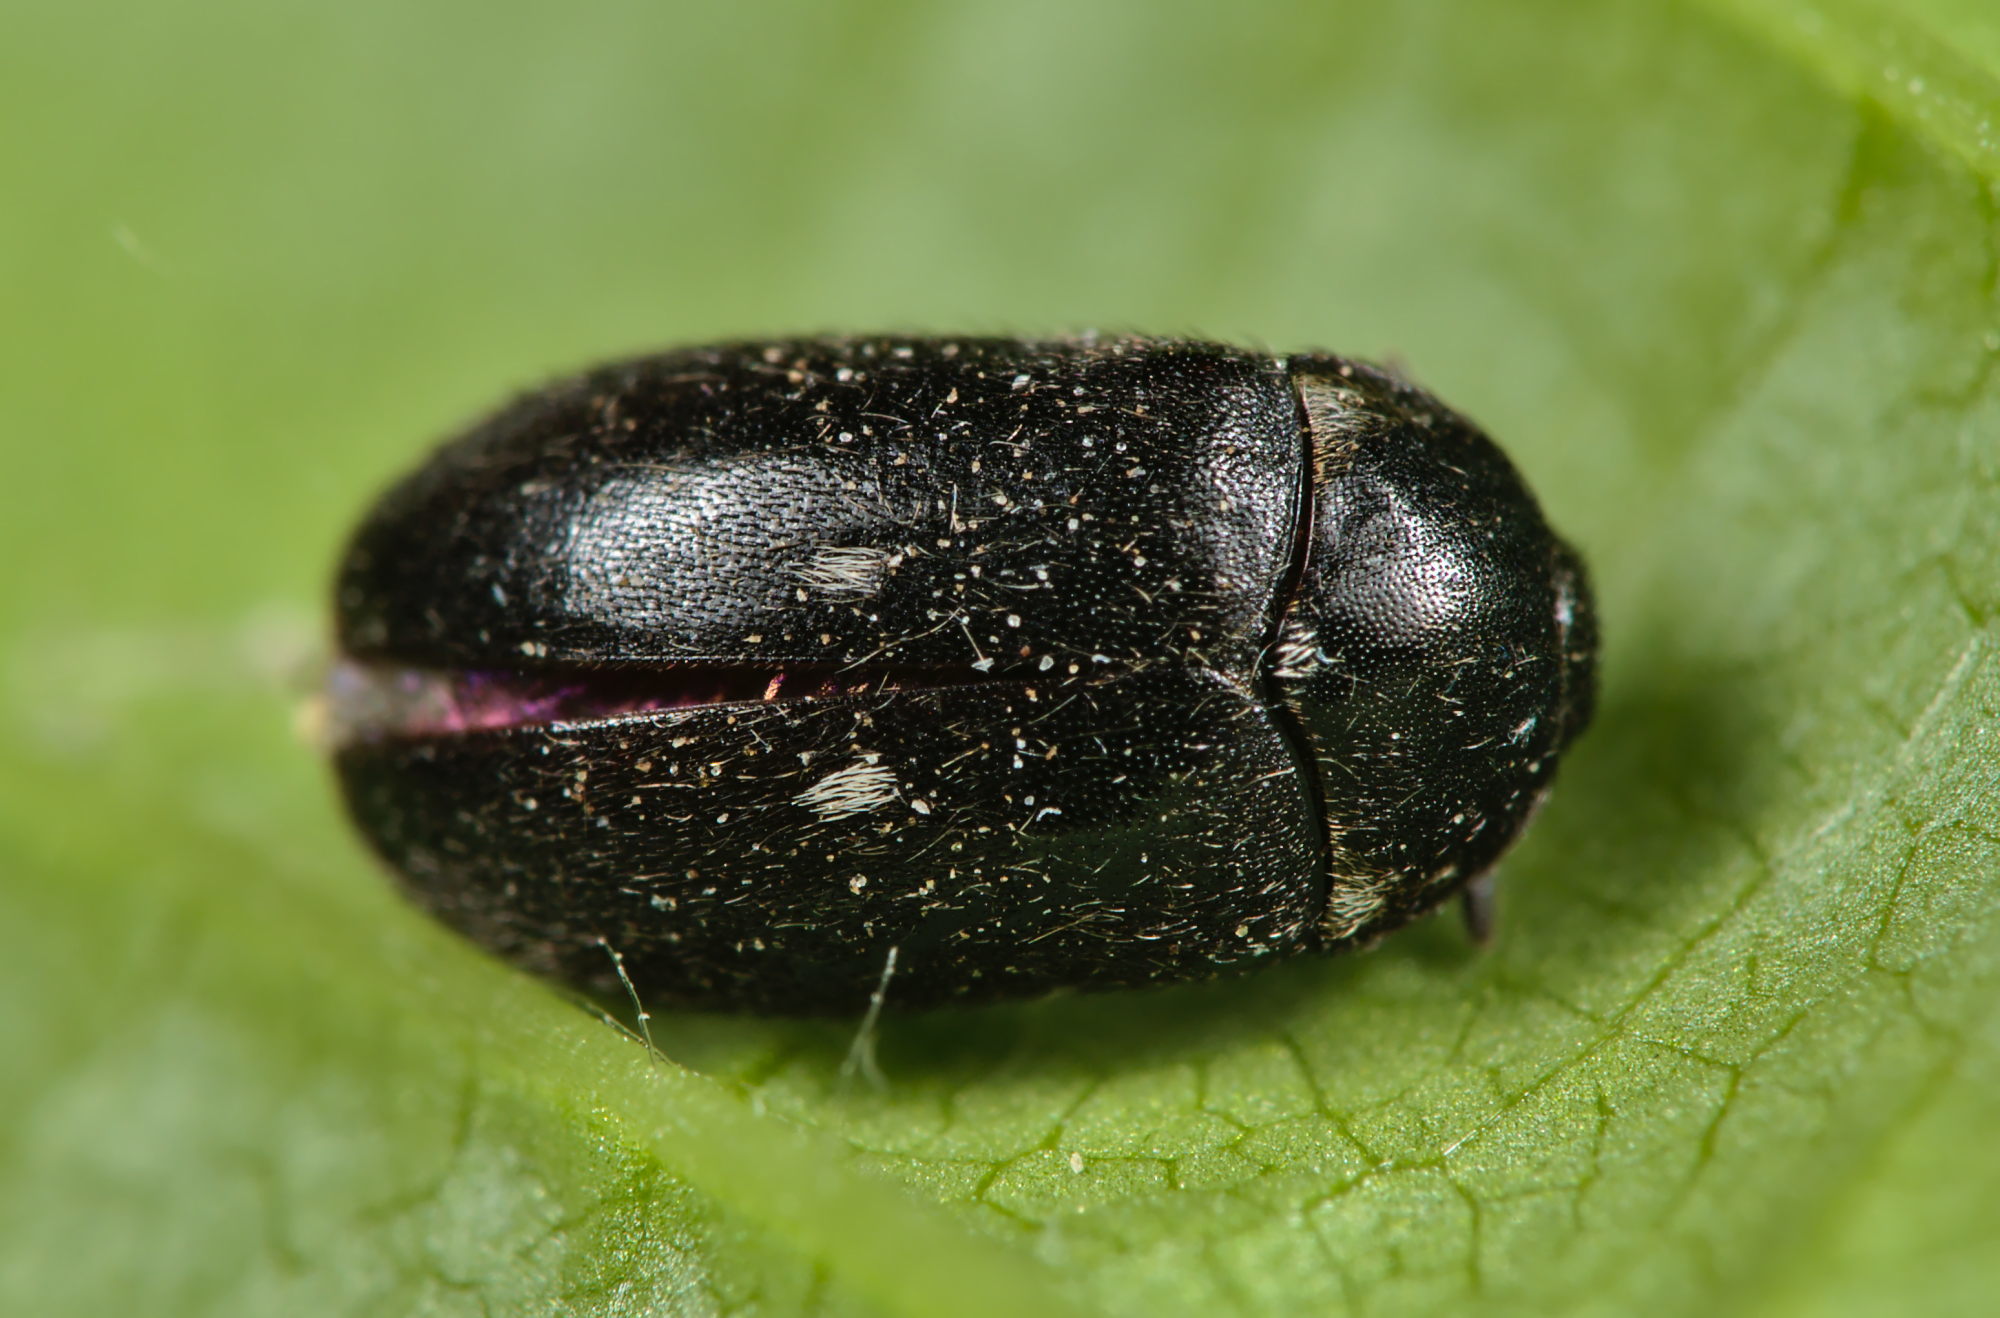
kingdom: Animalia
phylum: Arthropoda
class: Insecta
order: Coleoptera
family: Dermestidae
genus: Attagenus
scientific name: Attagenus pellio
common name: Two-spotted carpet beetle
